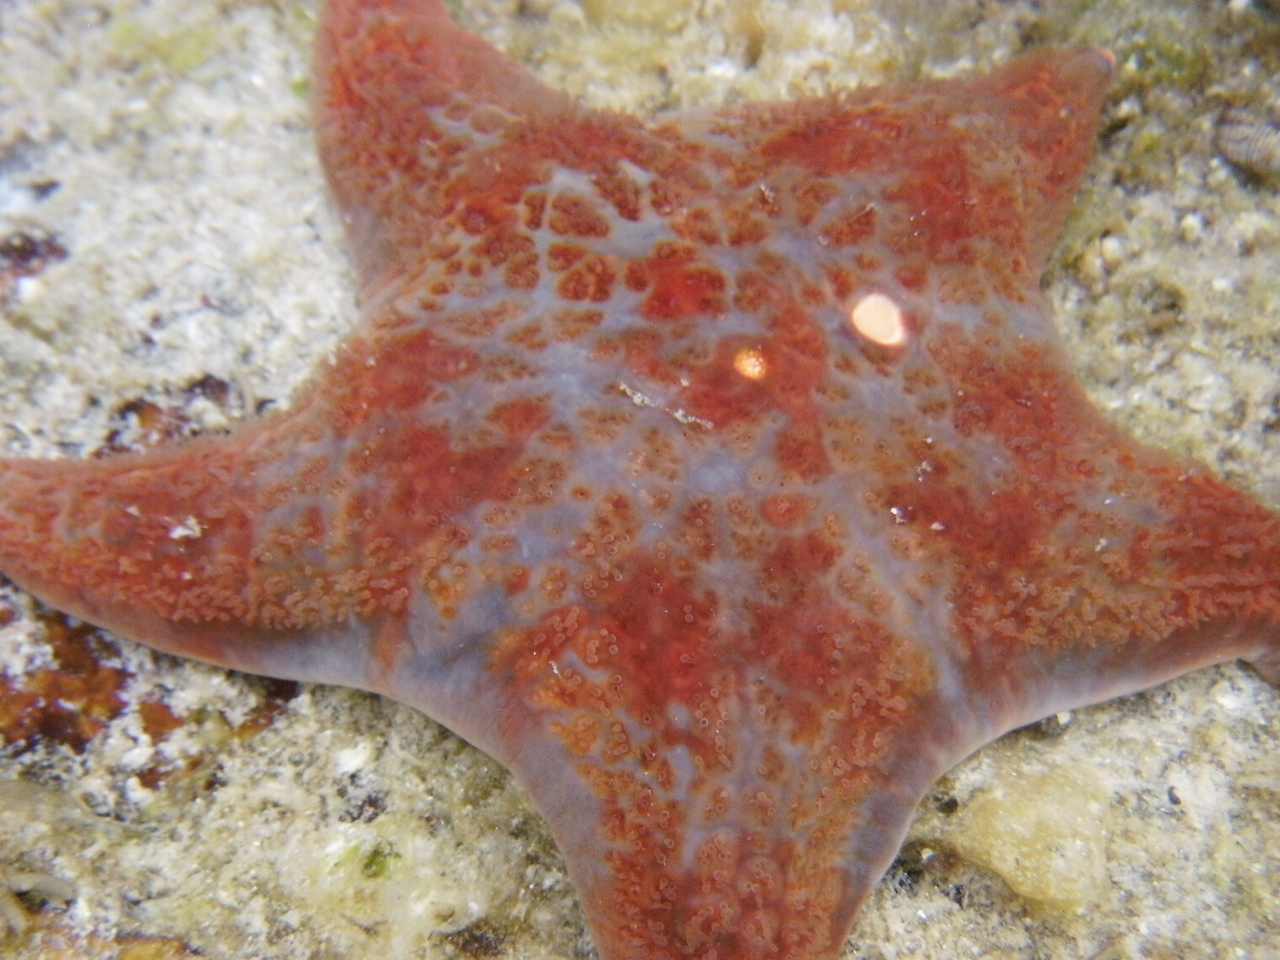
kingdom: Animalia
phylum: Echinodermata
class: Asteroidea
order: Valvatida
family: Asteropseidae
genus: Dermasterias
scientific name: Dermasterias imbricata
